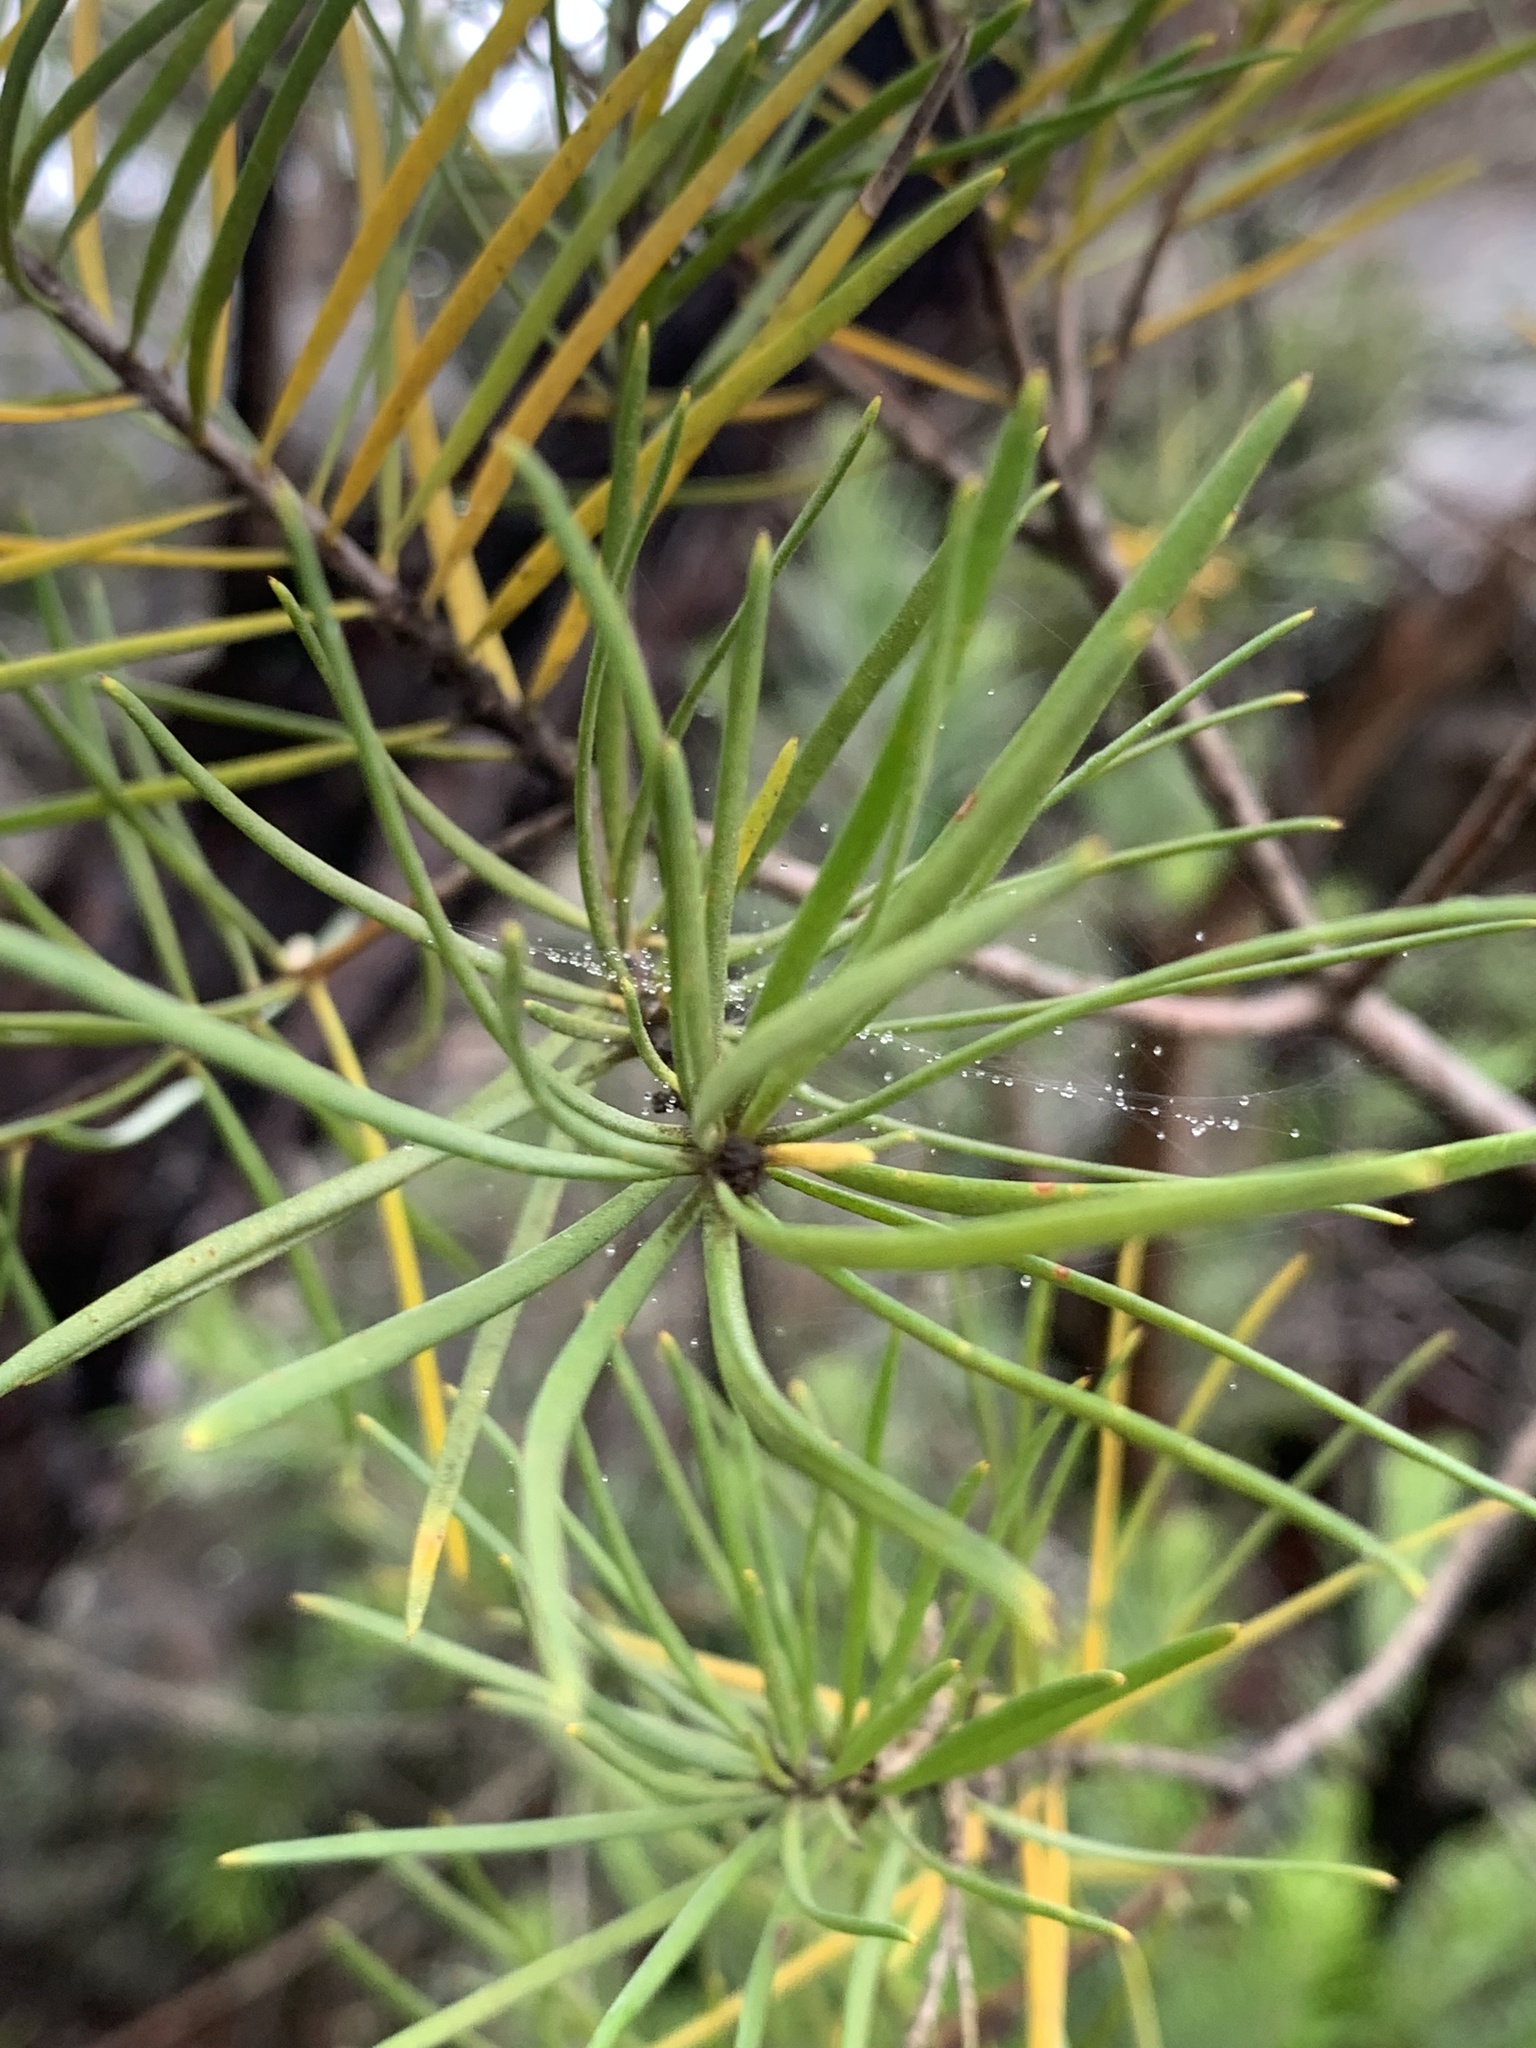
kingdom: Plantae
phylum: Tracheophyta
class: Magnoliopsida
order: Proteales
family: Proteaceae
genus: Persoonia
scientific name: Persoonia linearis
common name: Narrow-leaf geebung
